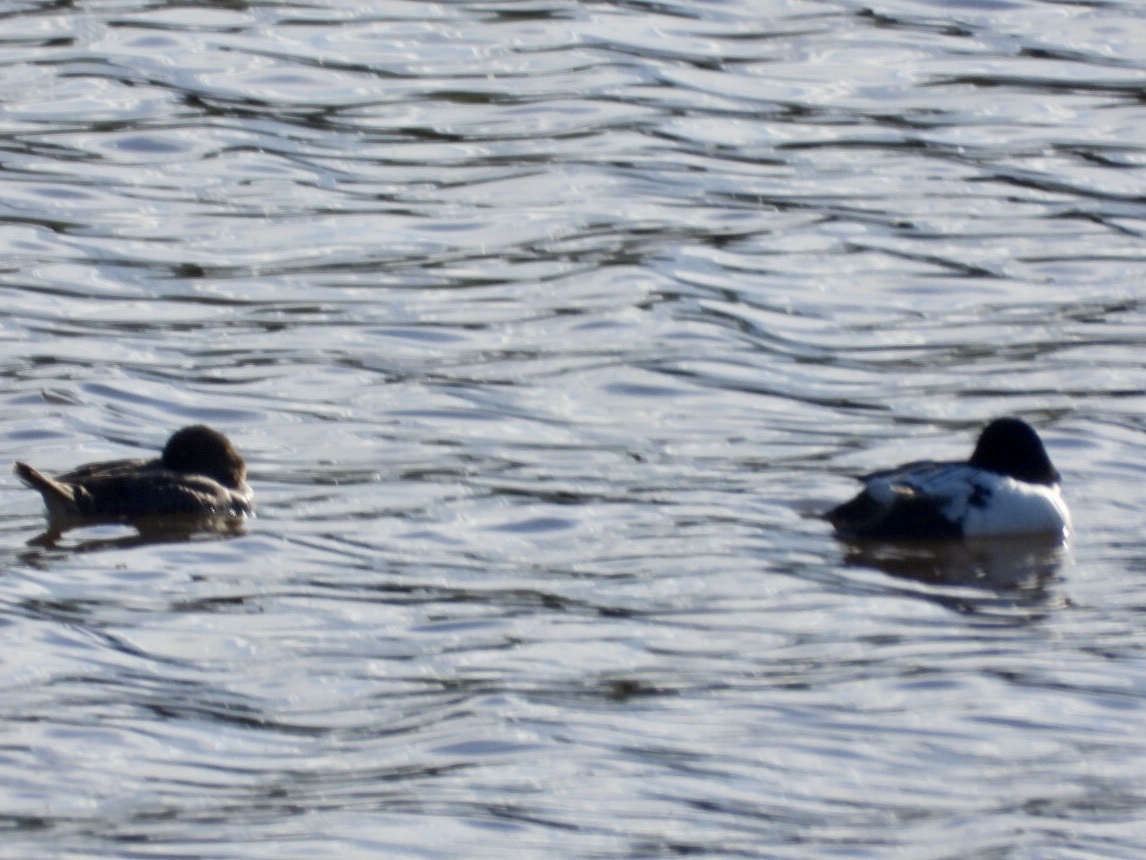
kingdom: Animalia
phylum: Chordata
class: Aves
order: Anseriformes
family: Anatidae
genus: Bucephala
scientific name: Bucephala clangula
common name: Common goldeneye
